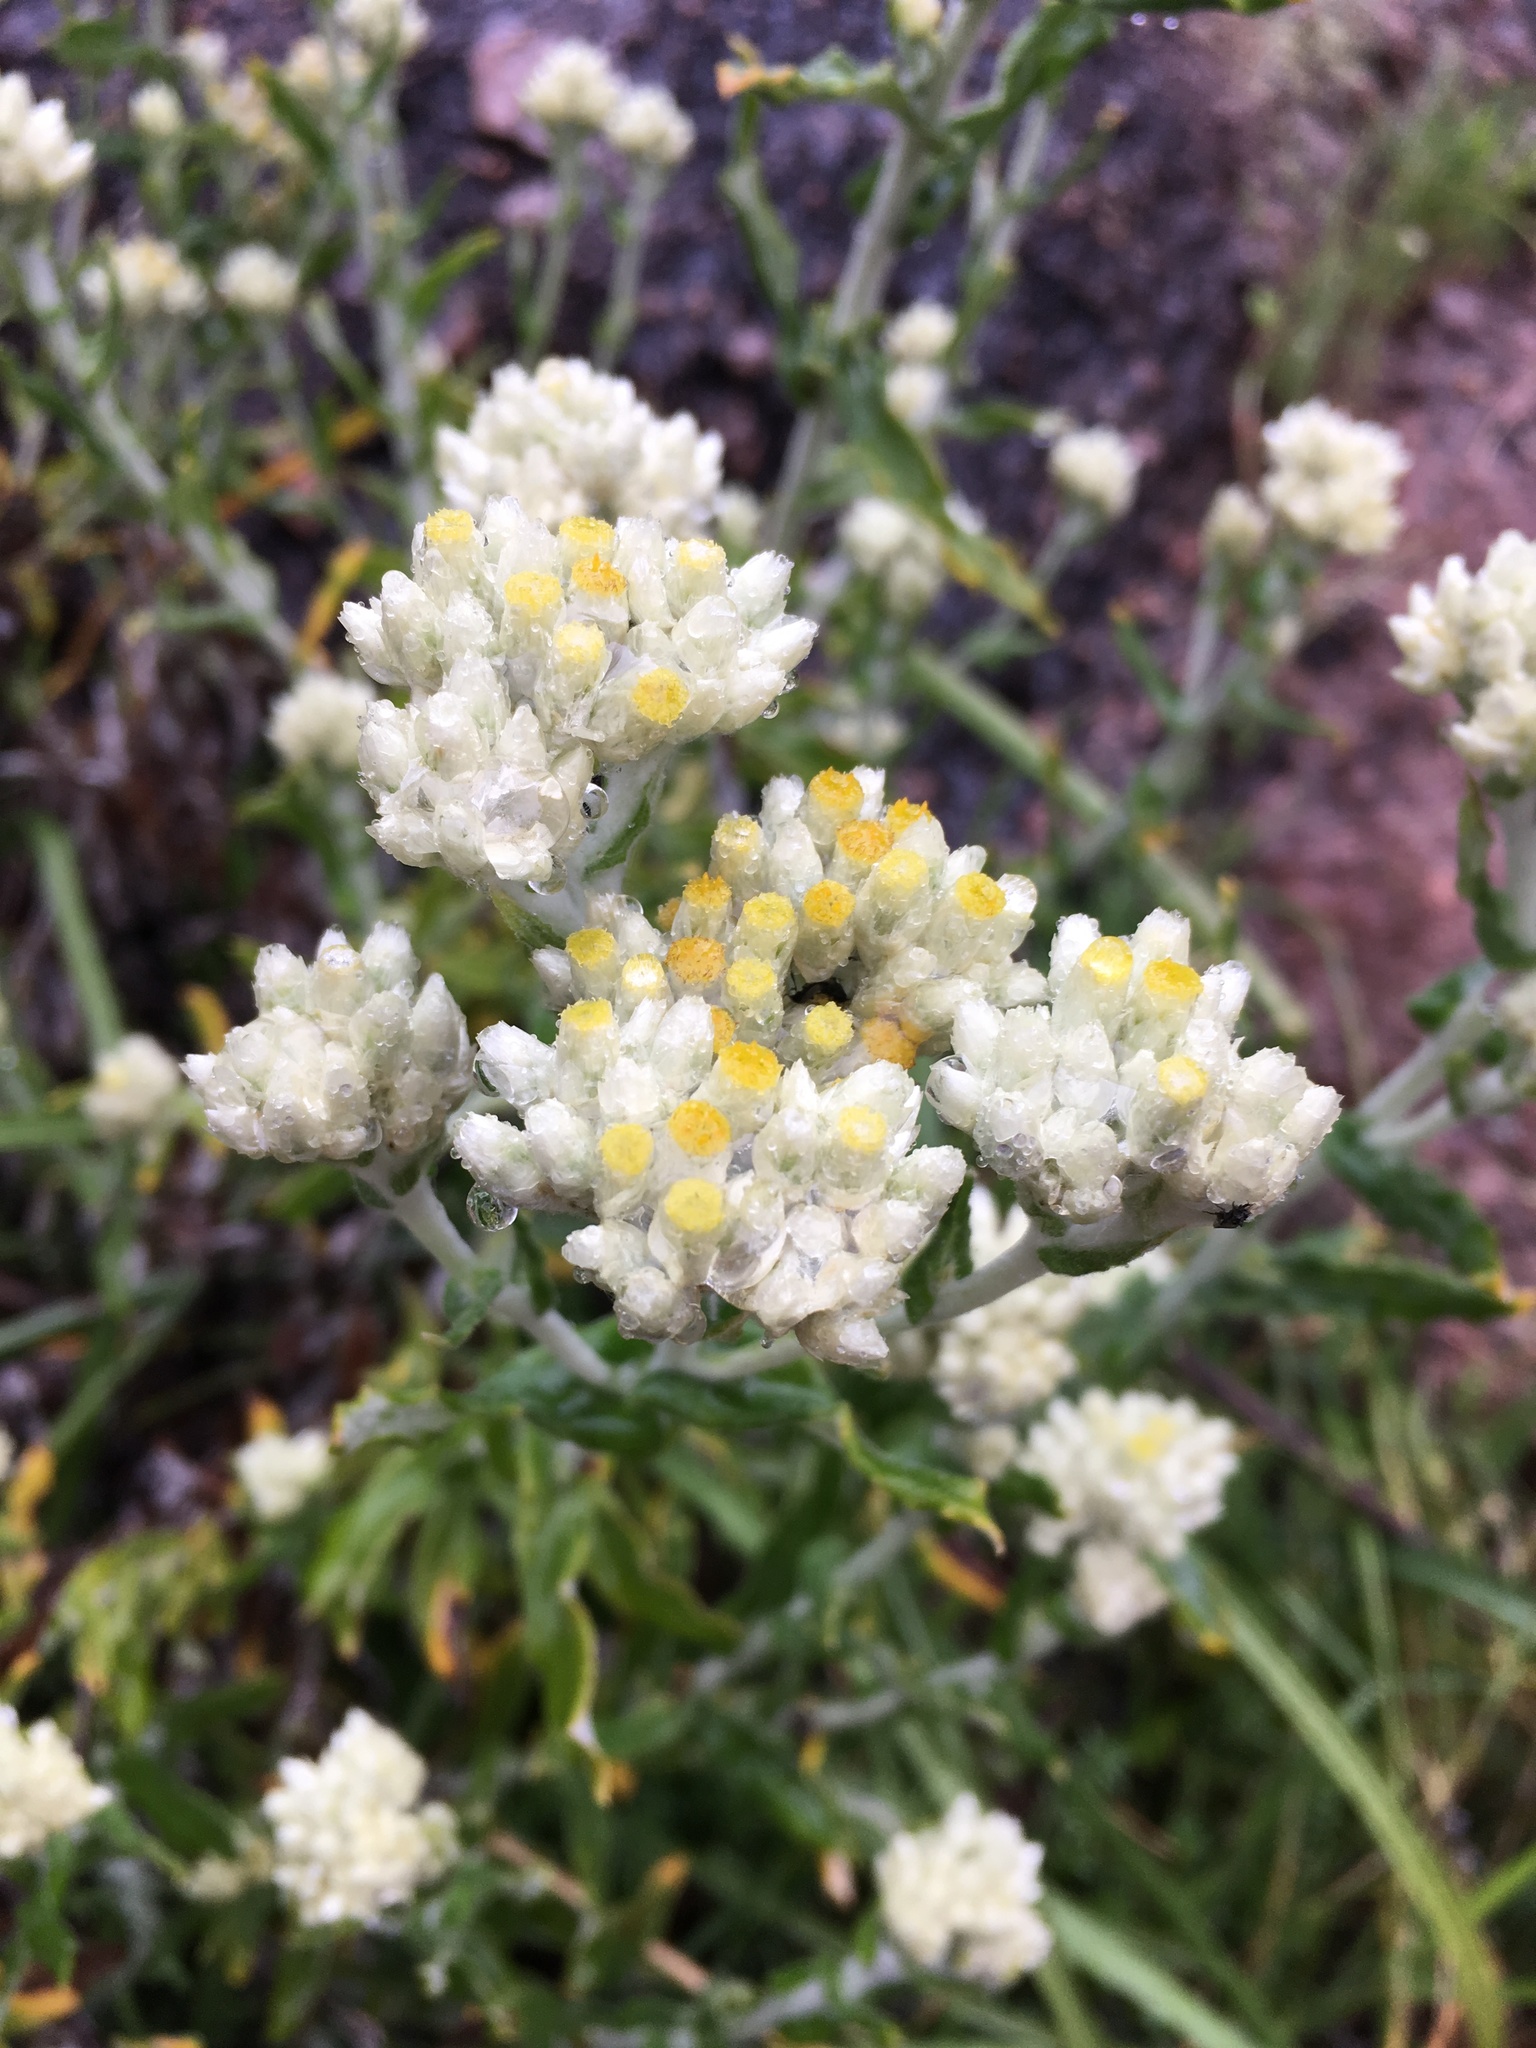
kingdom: Plantae
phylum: Tracheophyta
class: Magnoliopsida
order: Asterales
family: Asteraceae
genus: Pseudognaphalium
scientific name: Pseudognaphalium californicum
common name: California rabbit-tobacco
